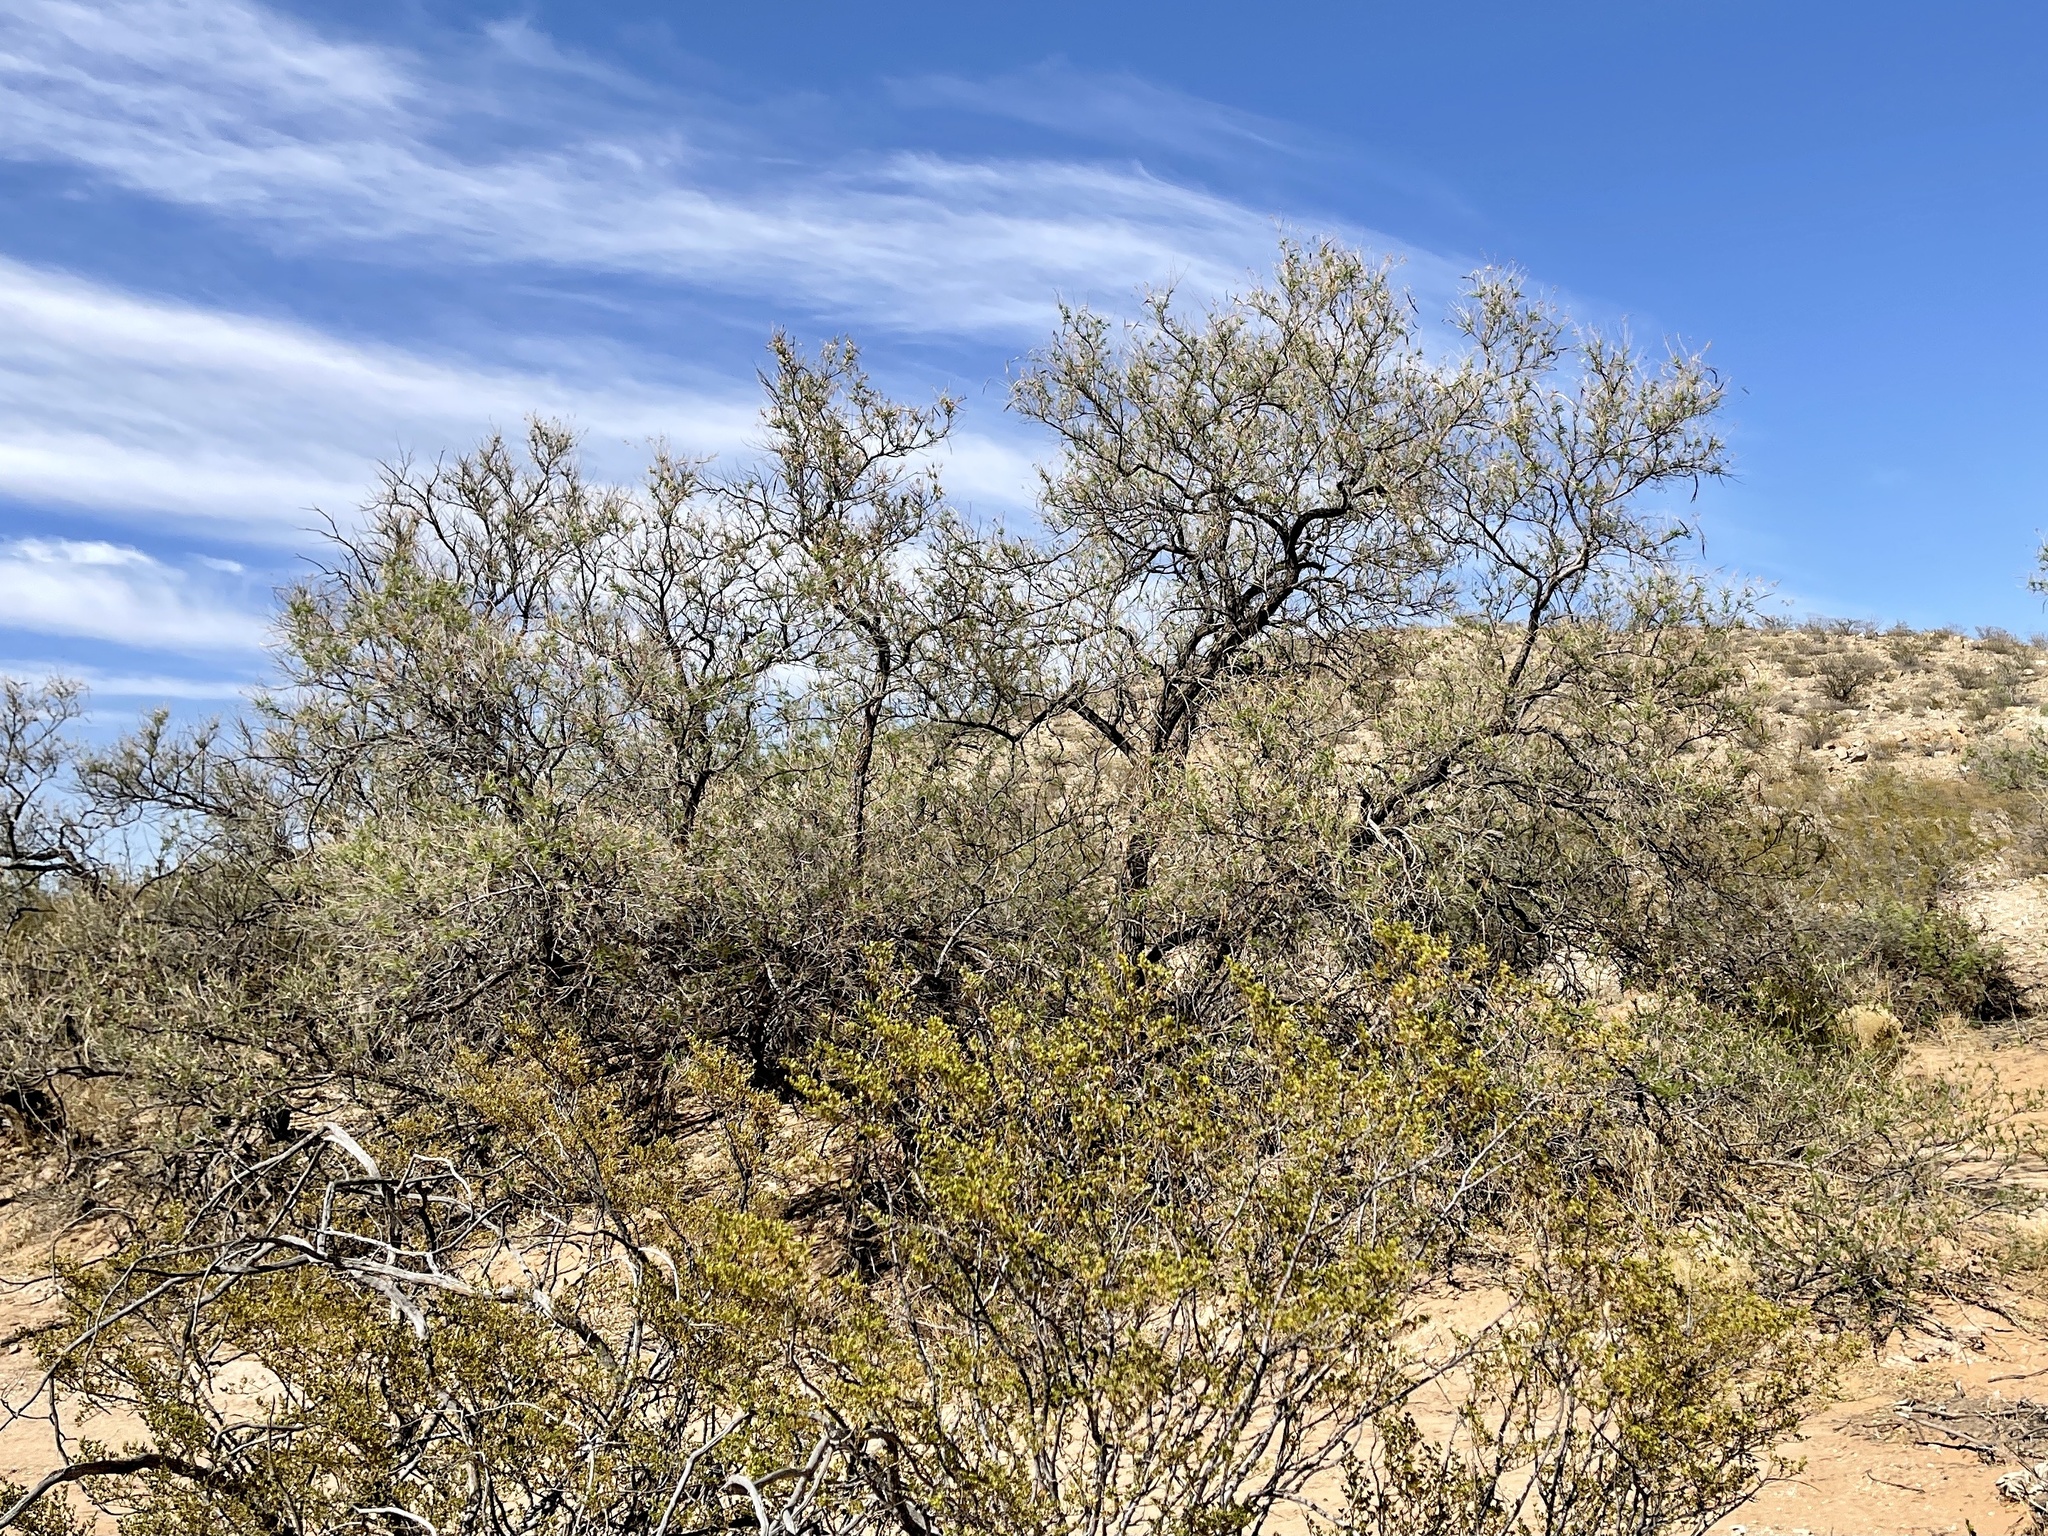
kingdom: Plantae
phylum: Tracheophyta
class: Magnoliopsida
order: Lamiales
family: Bignoniaceae
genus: Chilopsis
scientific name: Chilopsis linearis
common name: Desert-willow
